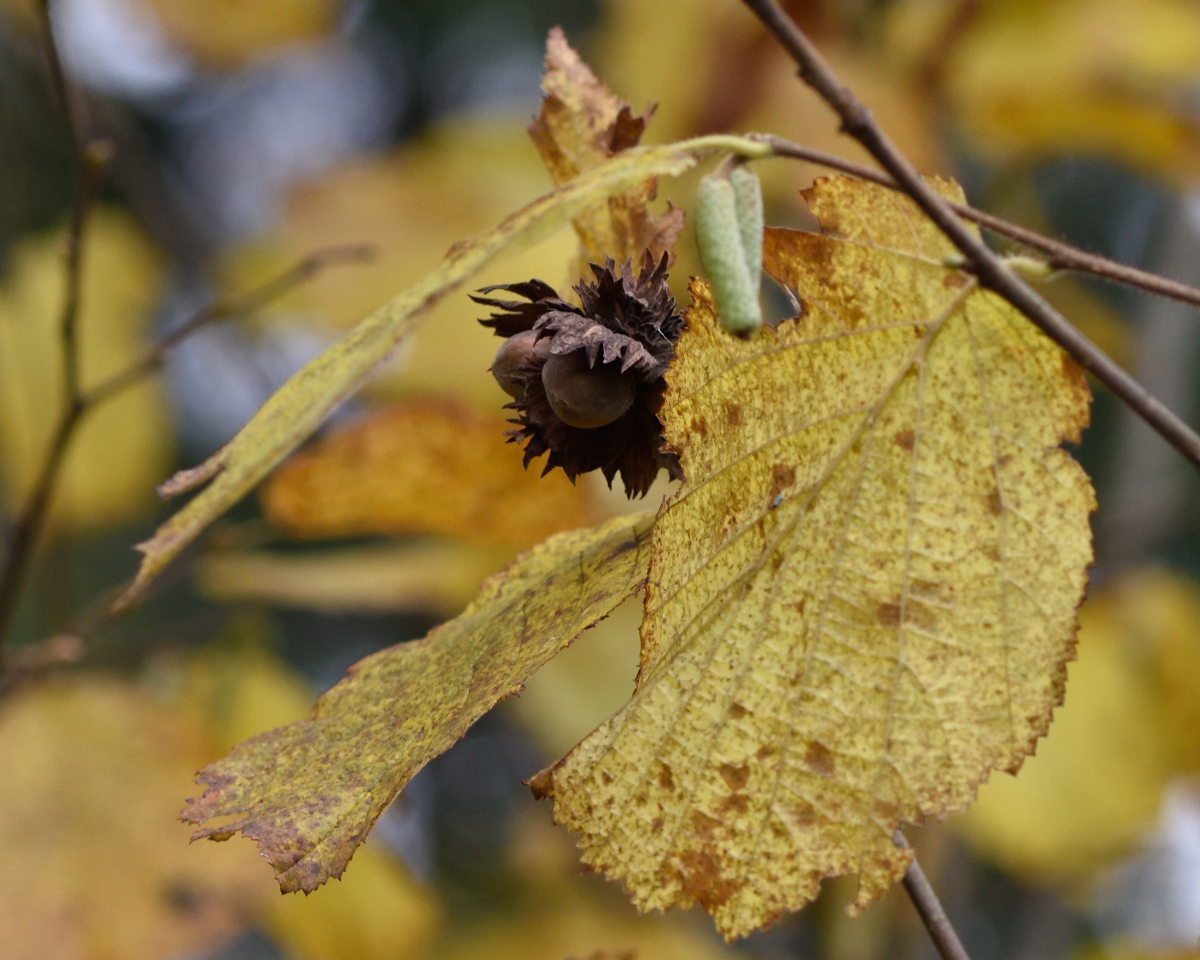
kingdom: Plantae
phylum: Tracheophyta
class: Magnoliopsida
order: Fagales
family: Betulaceae
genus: Corylus
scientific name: Corylus avellana
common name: European hazel
